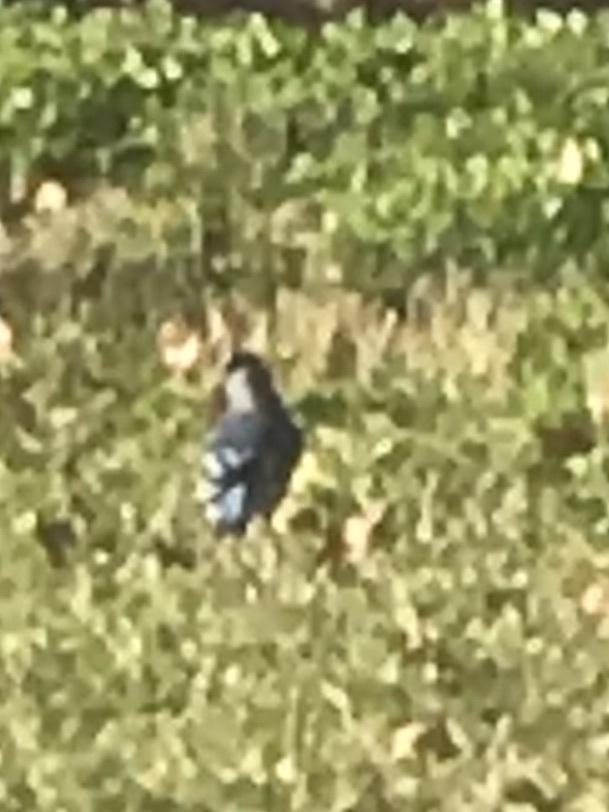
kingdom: Animalia
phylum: Chordata
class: Aves
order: Passeriformes
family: Corvidae
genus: Cyanocitta
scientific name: Cyanocitta cristata
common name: Blue jay
